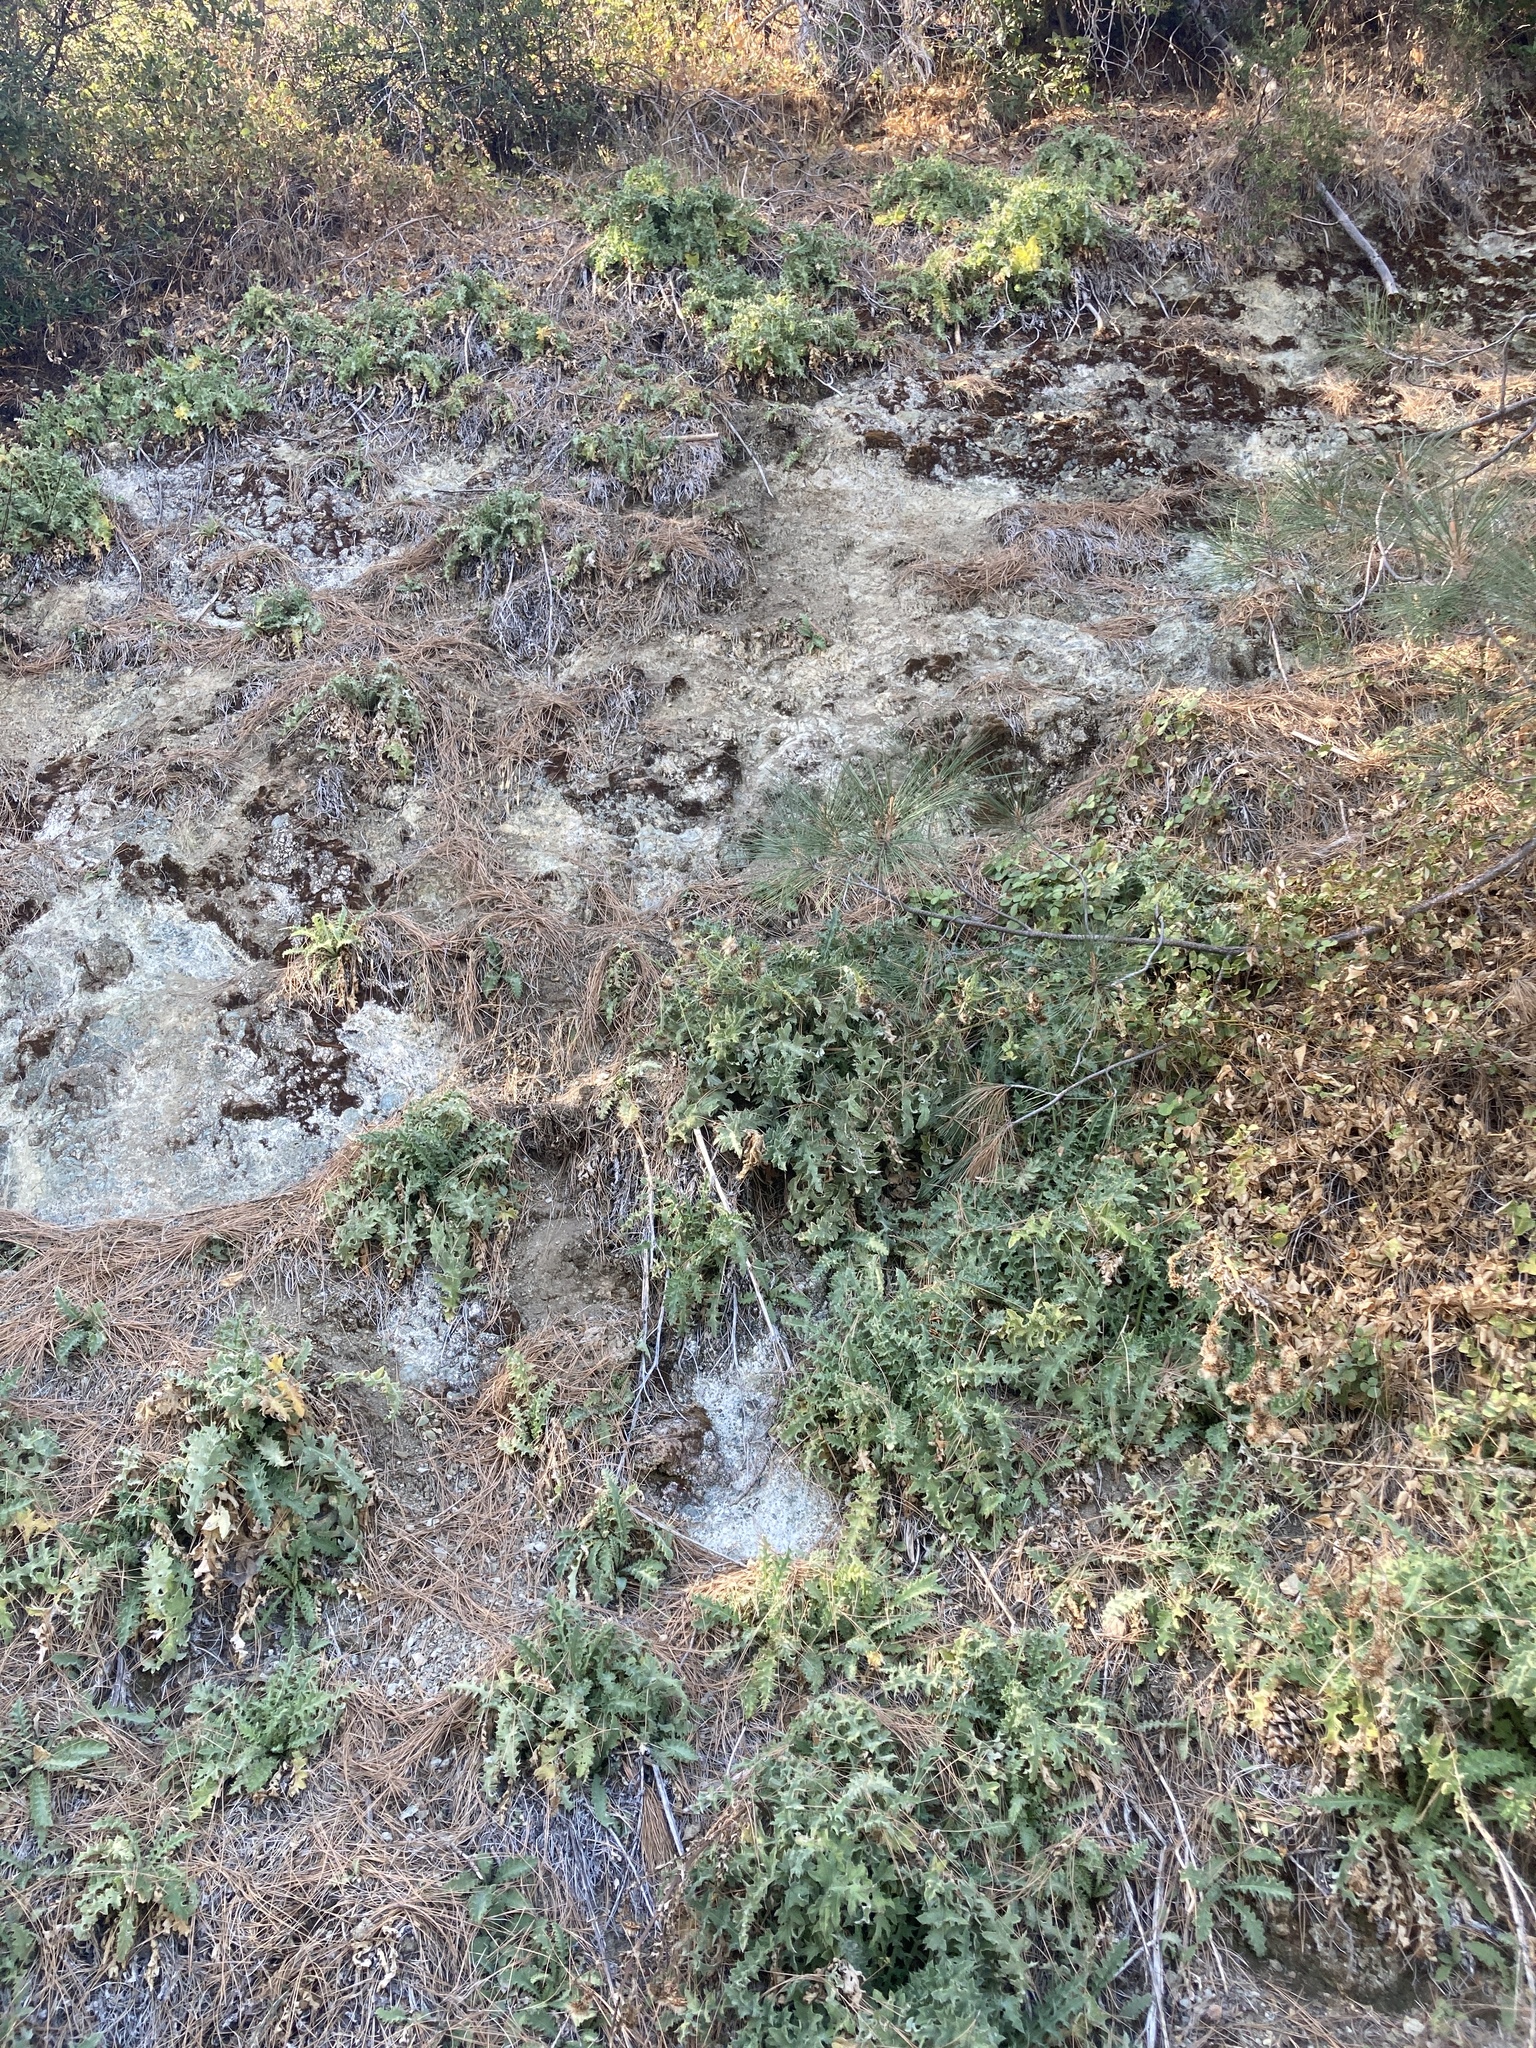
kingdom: Plantae
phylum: Tracheophyta
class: Magnoliopsida
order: Asterales
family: Asteraceae
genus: Cirsium
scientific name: Cirsium fontinale
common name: Fountain thistle
